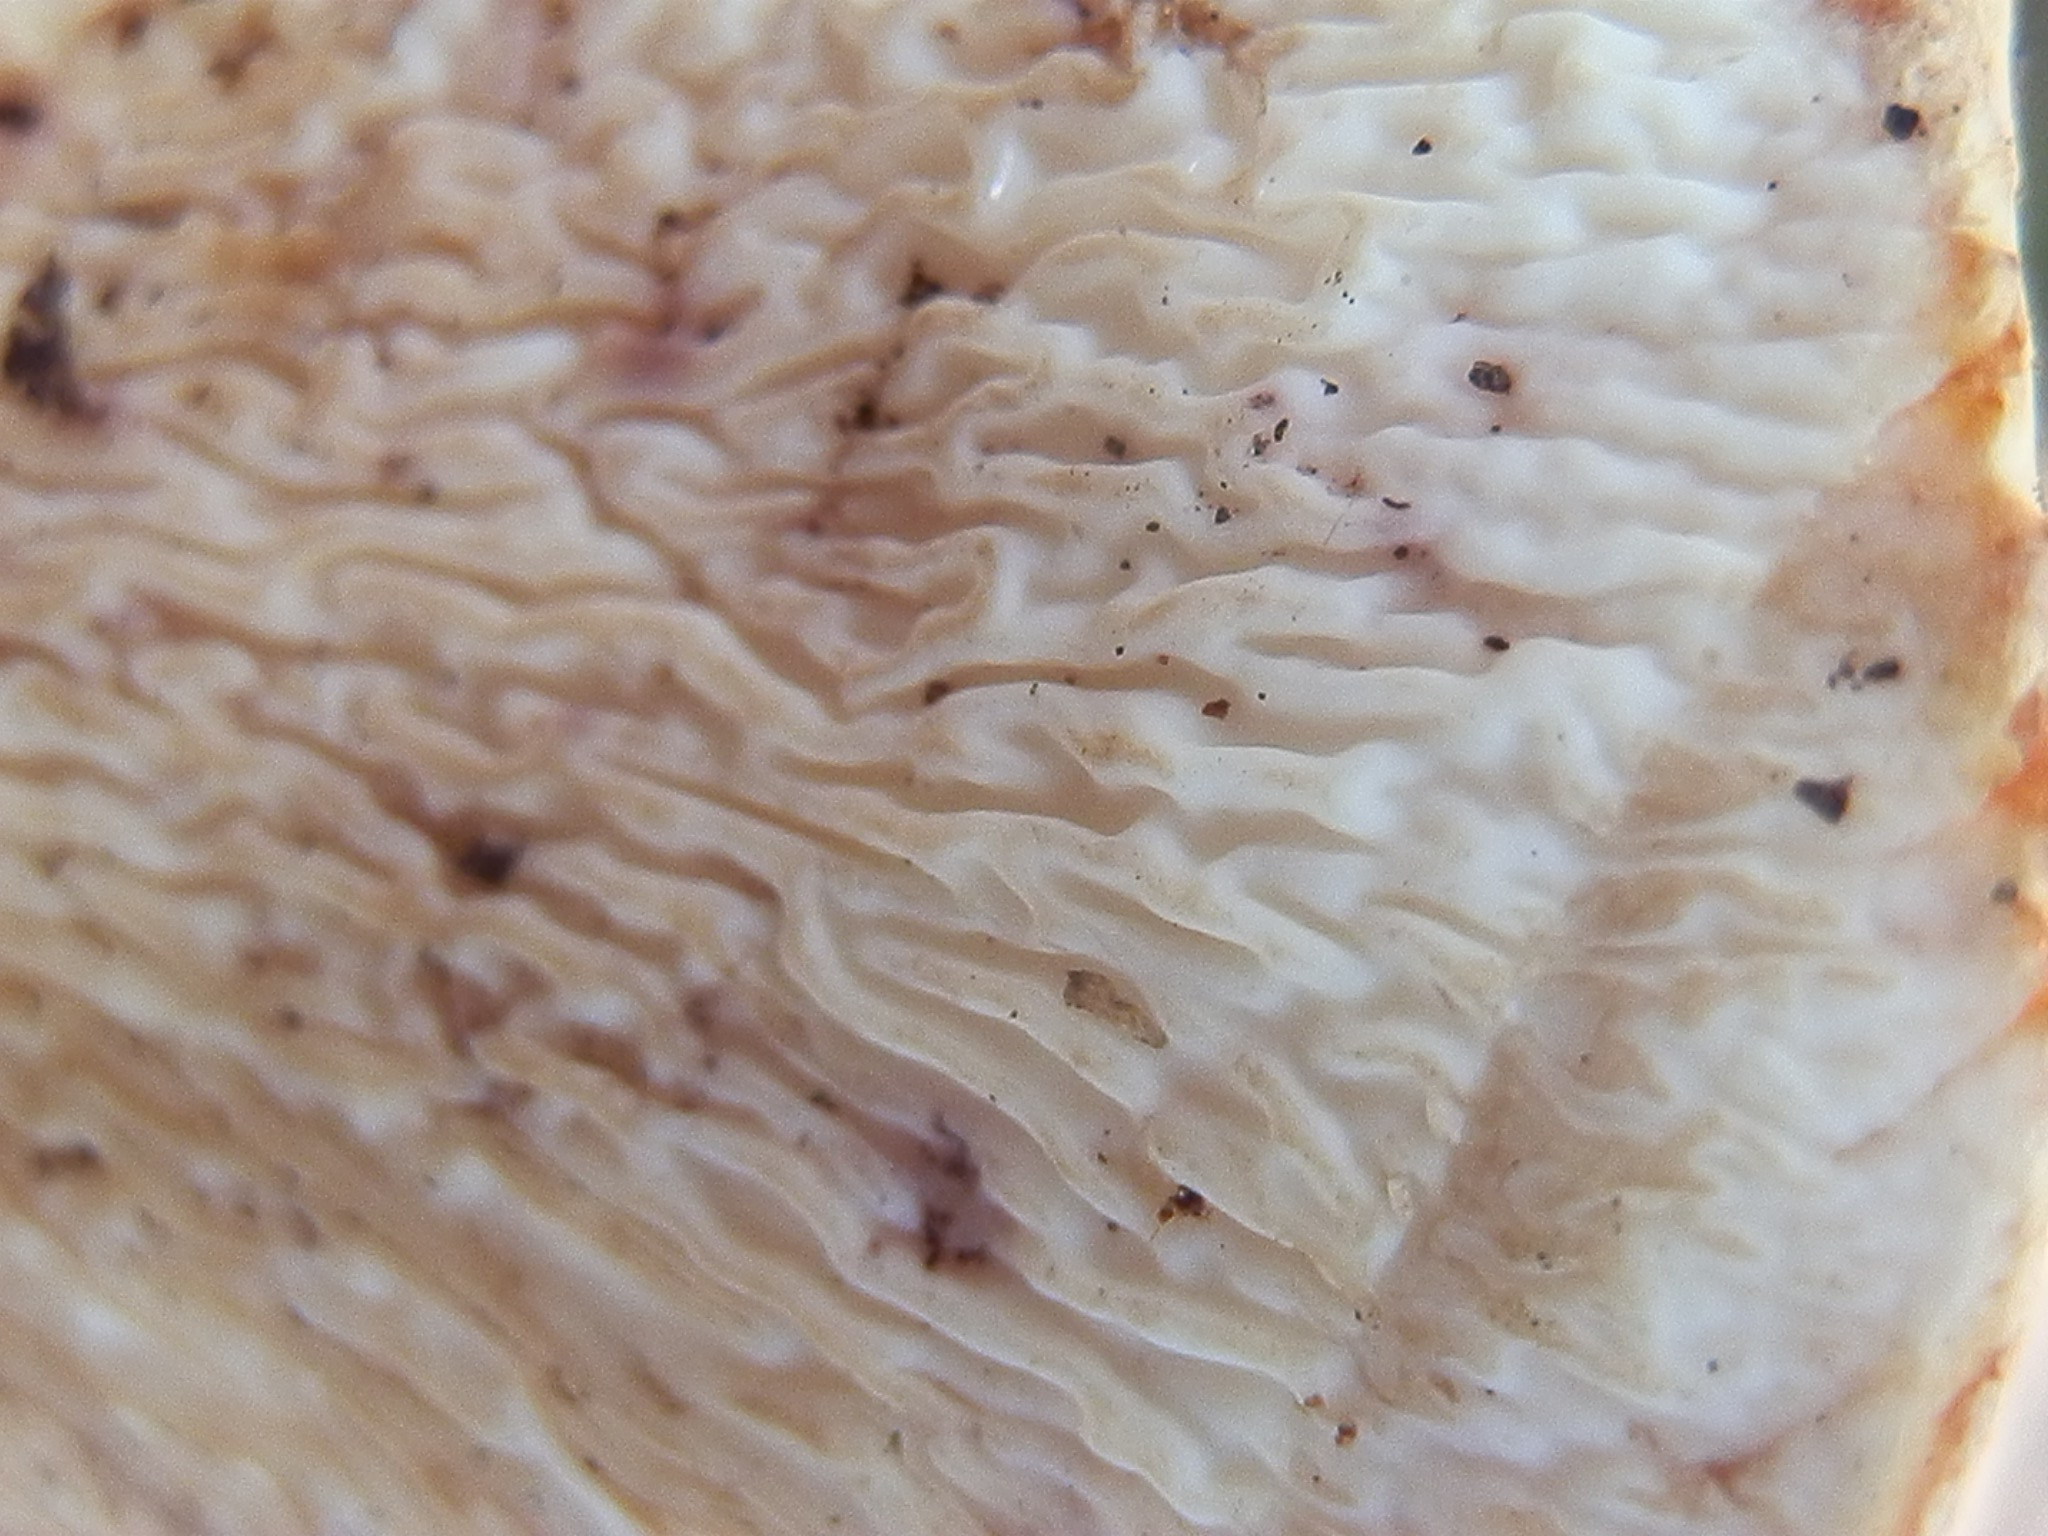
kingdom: Fungi
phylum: Basidiomycota
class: Agaricomycetes
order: Gomphales
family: Gomphaceae
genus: Turbinellus
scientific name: Turbinellus floccosus
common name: Scaly chanterelle
